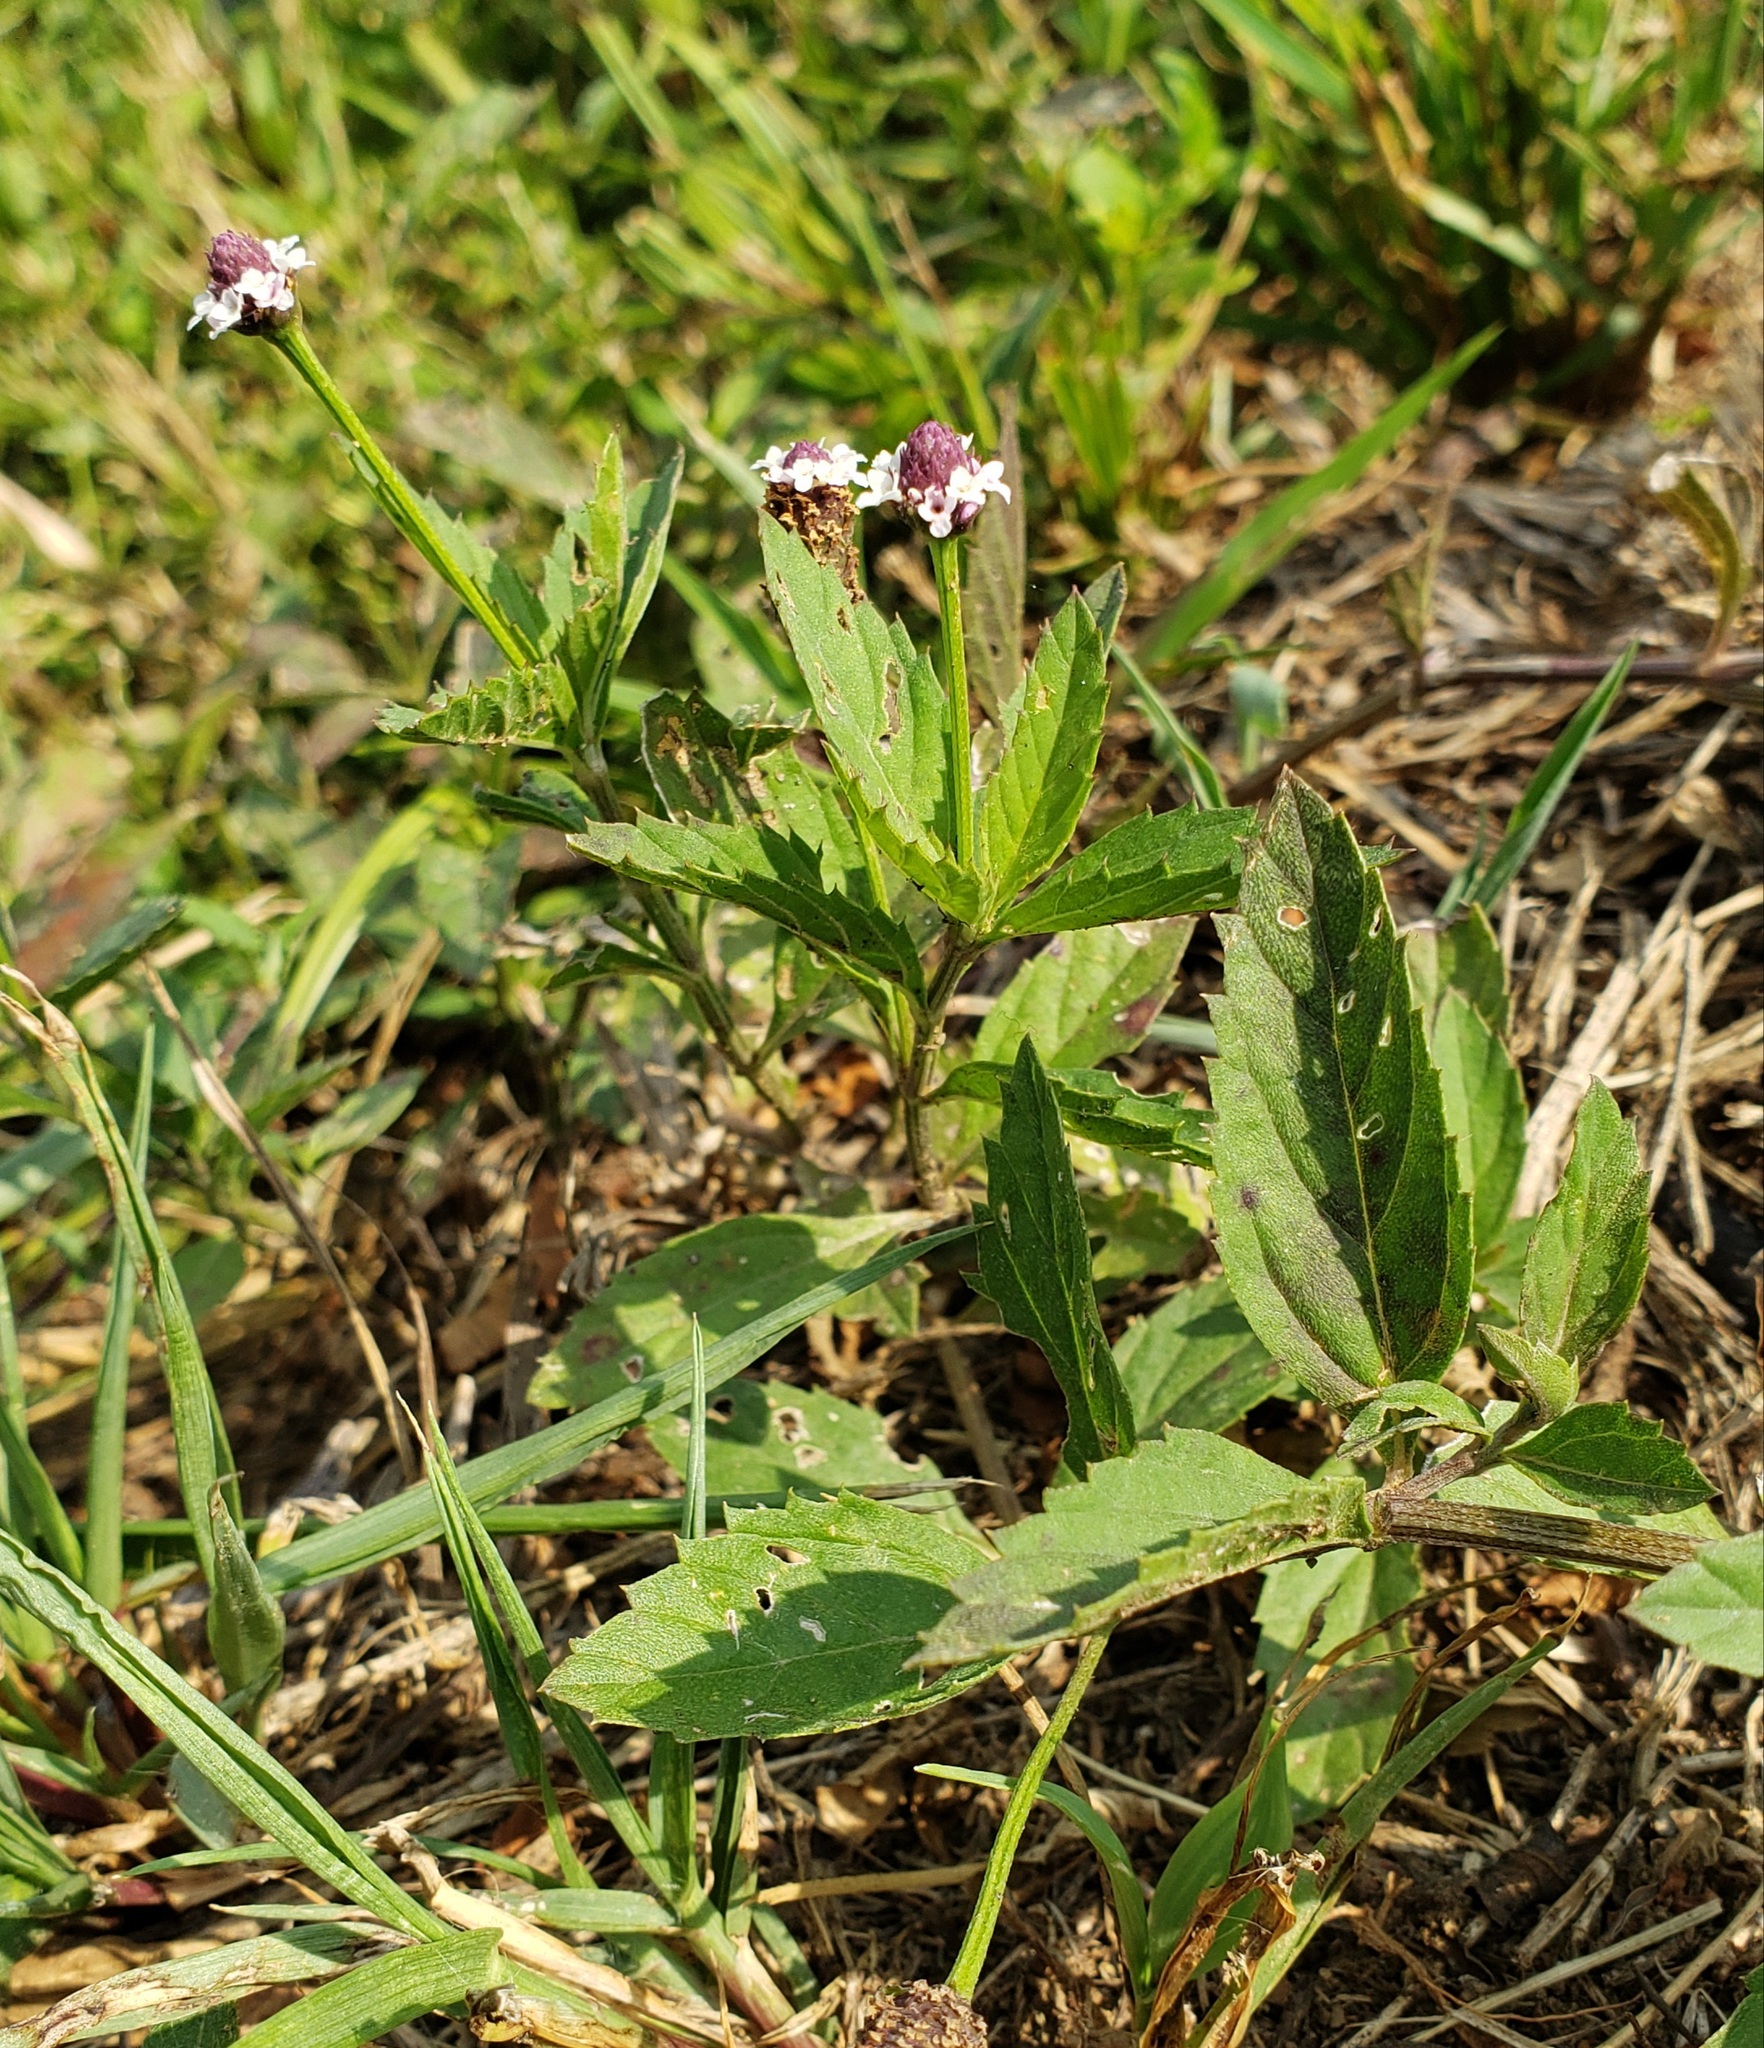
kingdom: Plantae
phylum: Tracheophyta
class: Magnoliopsida
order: Lamiales
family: Verbenaceae
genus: Phyla
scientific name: Phyla lanceolata
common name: Northern fogfruit
